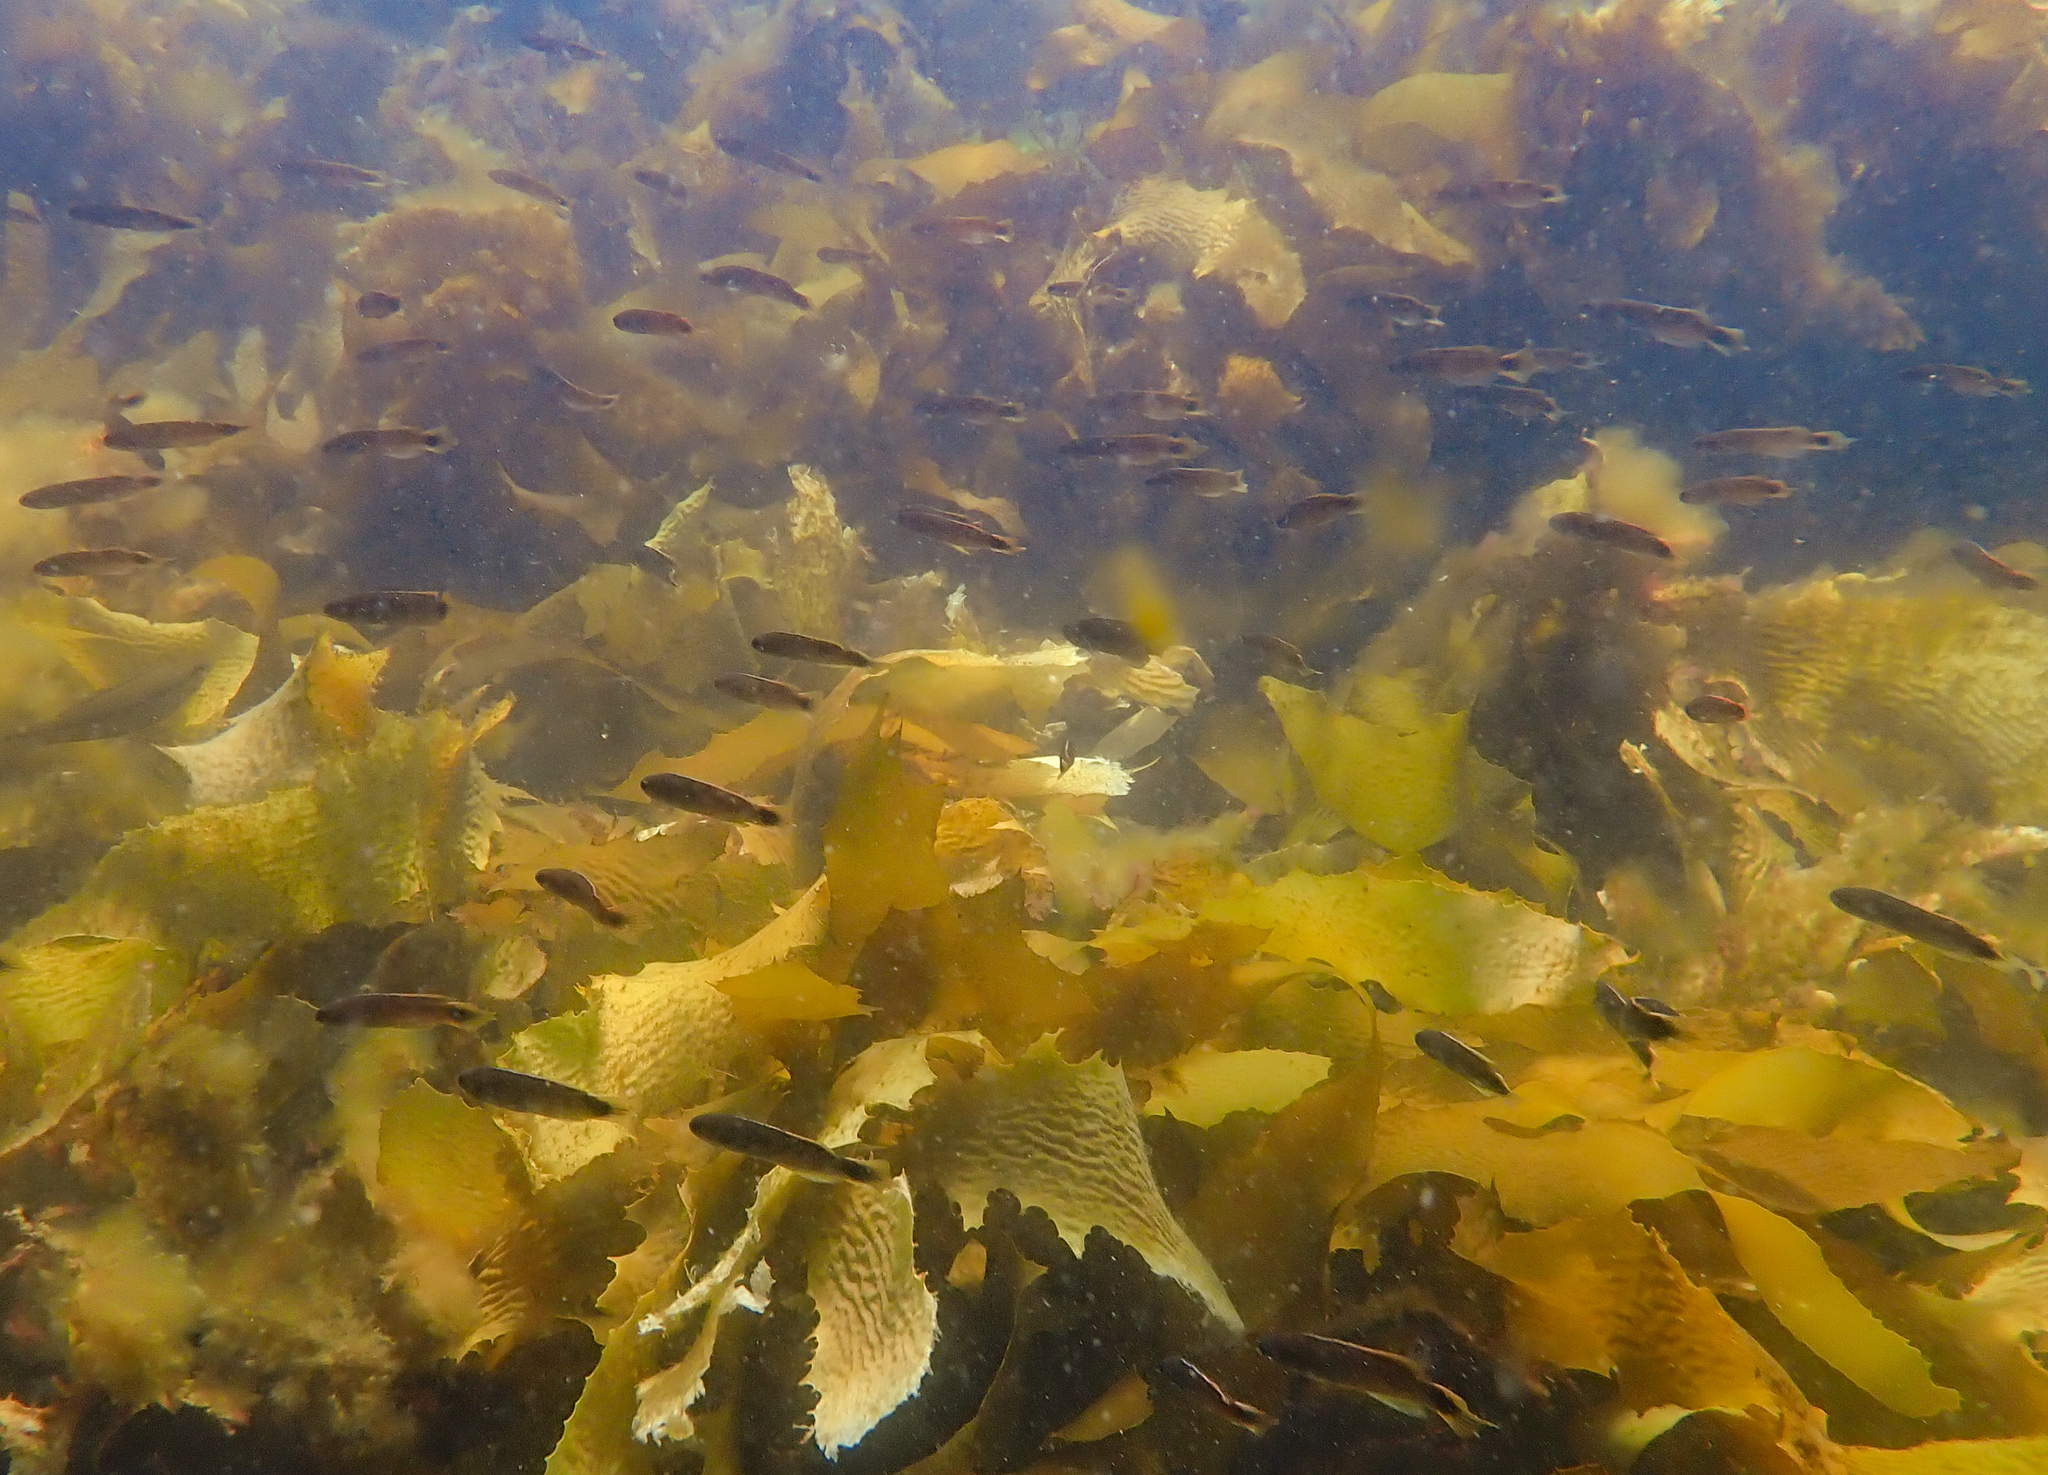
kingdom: Animalia
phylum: Chordata
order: Perciformes
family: Plesiopidae
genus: Trachinops
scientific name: Trachinops caudimaculatus
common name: Blotched-tailed trachinops
